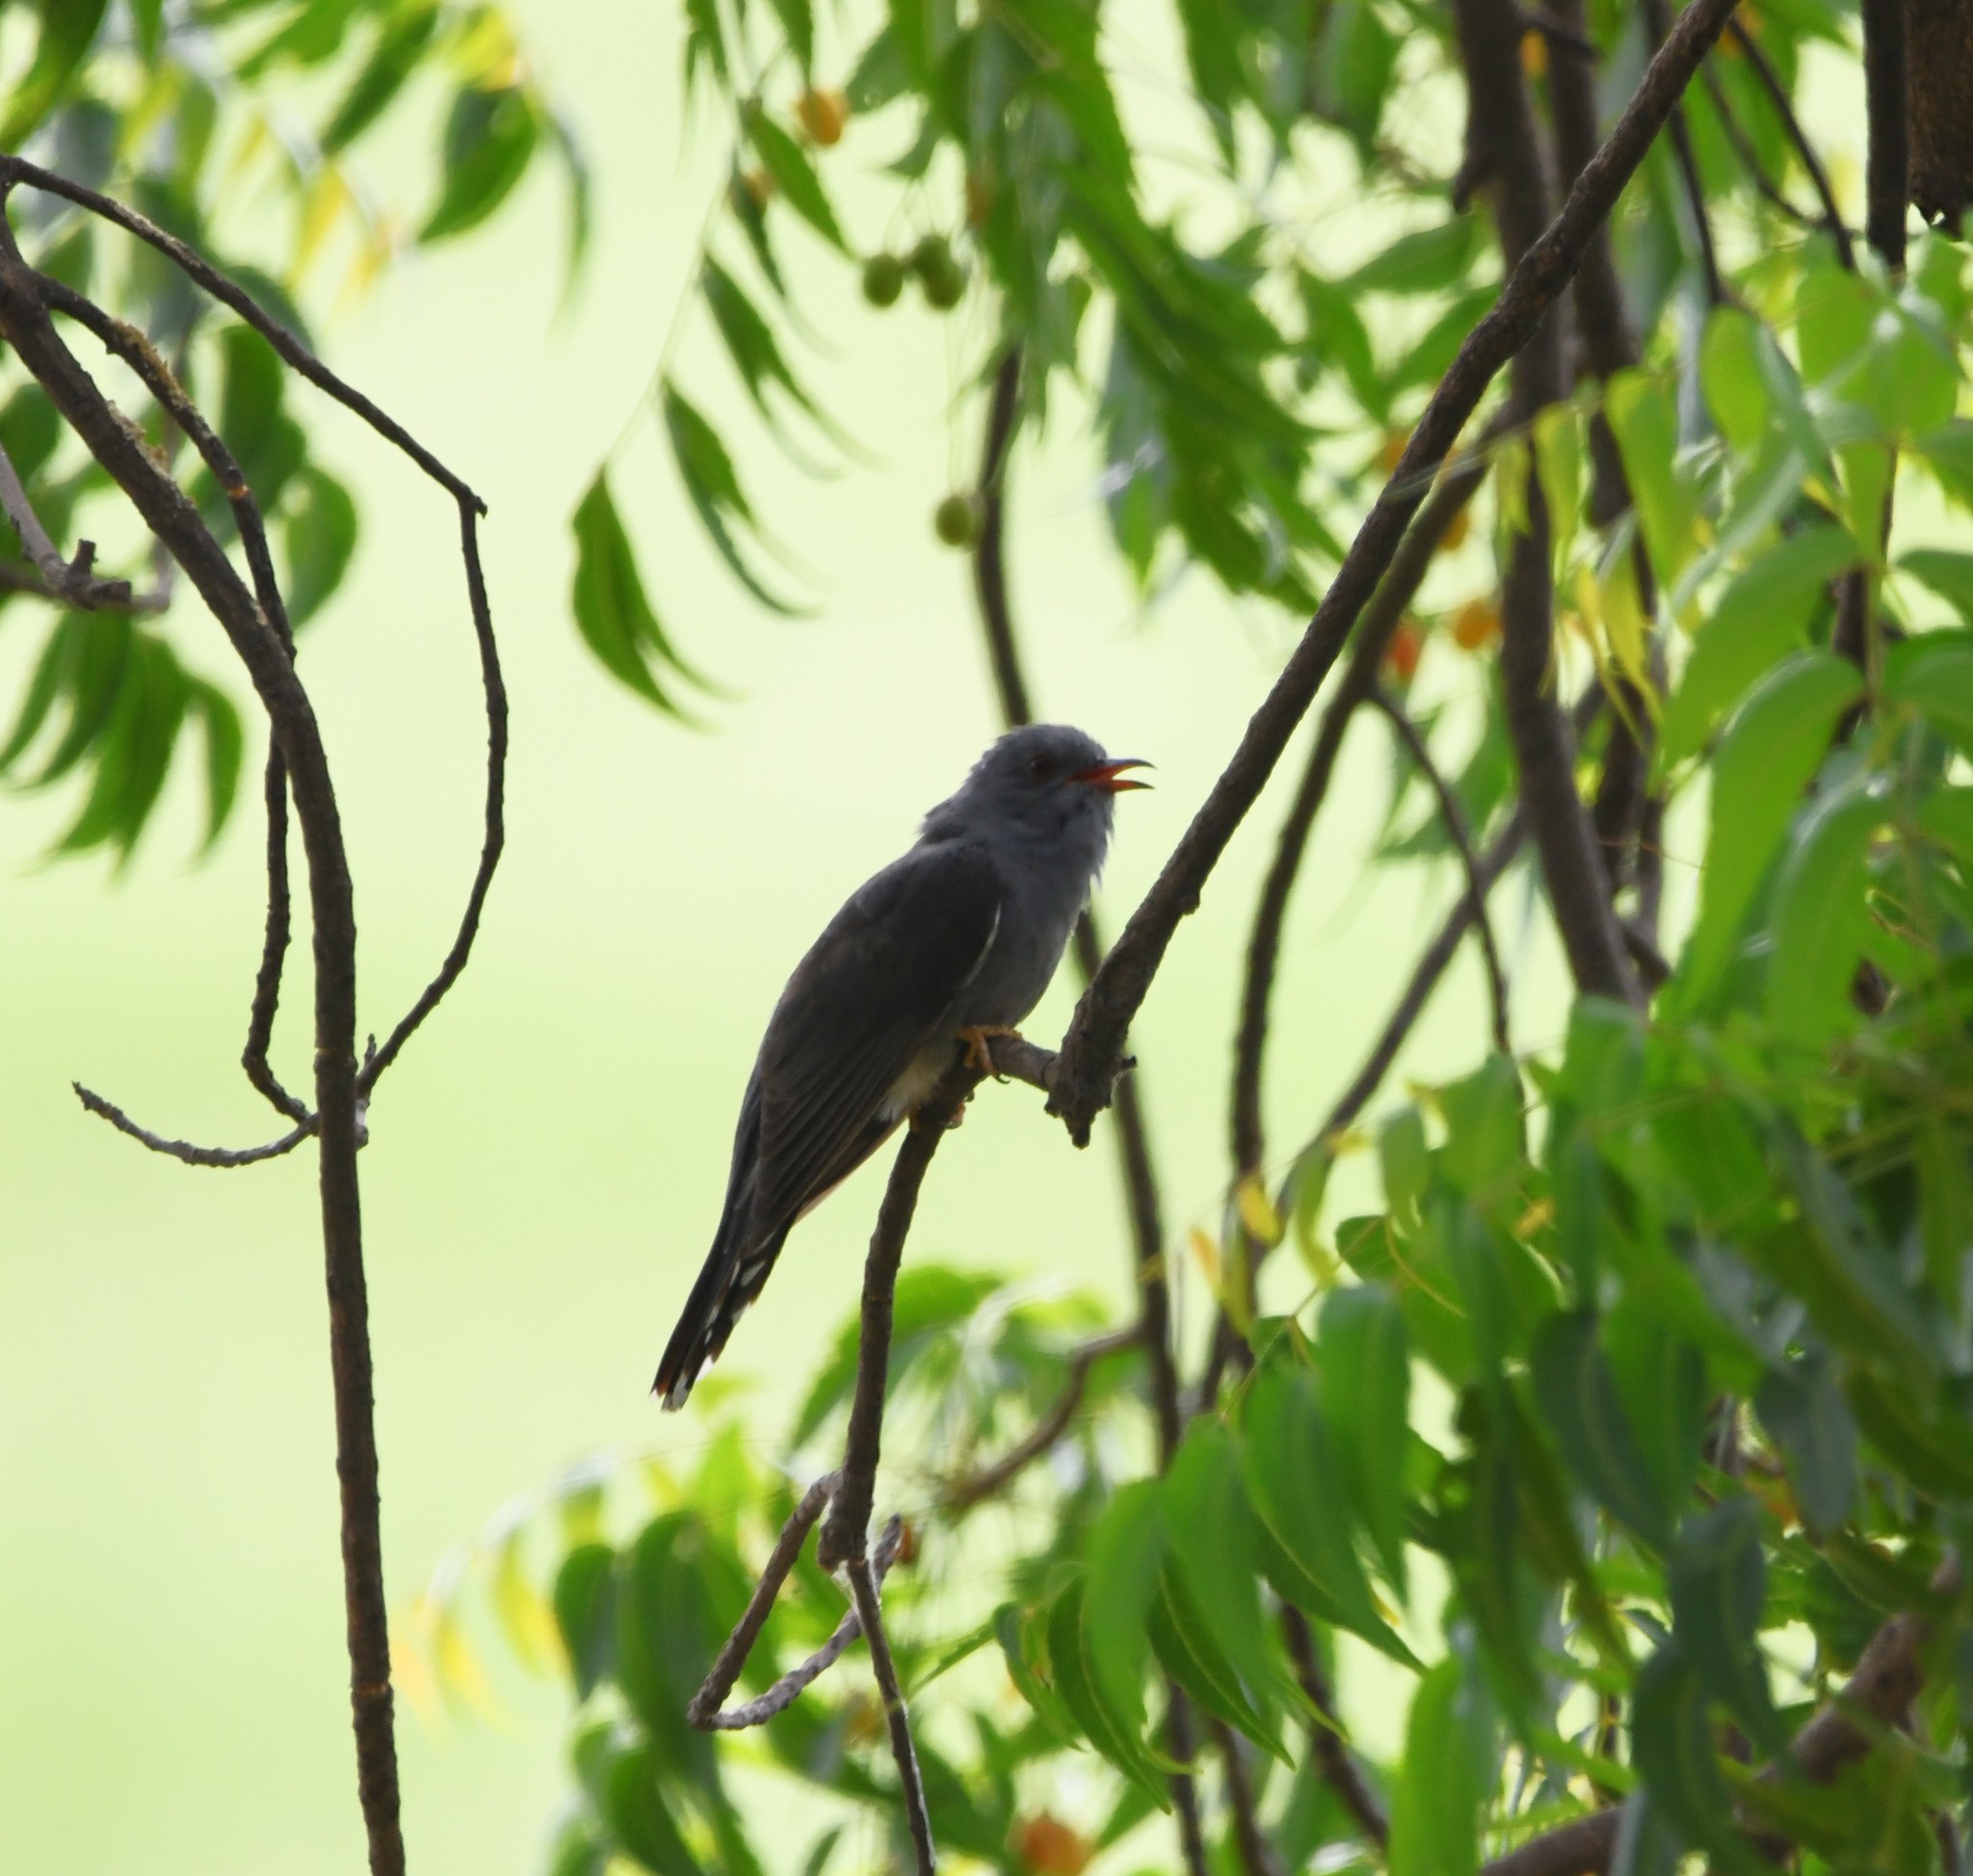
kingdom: Animalia
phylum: Chordata
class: Aves
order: Cuculiformes
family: Cuculidae
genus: Cacomantis
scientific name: Cacomantis passerinus
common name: Grey-bellied cuckoo
